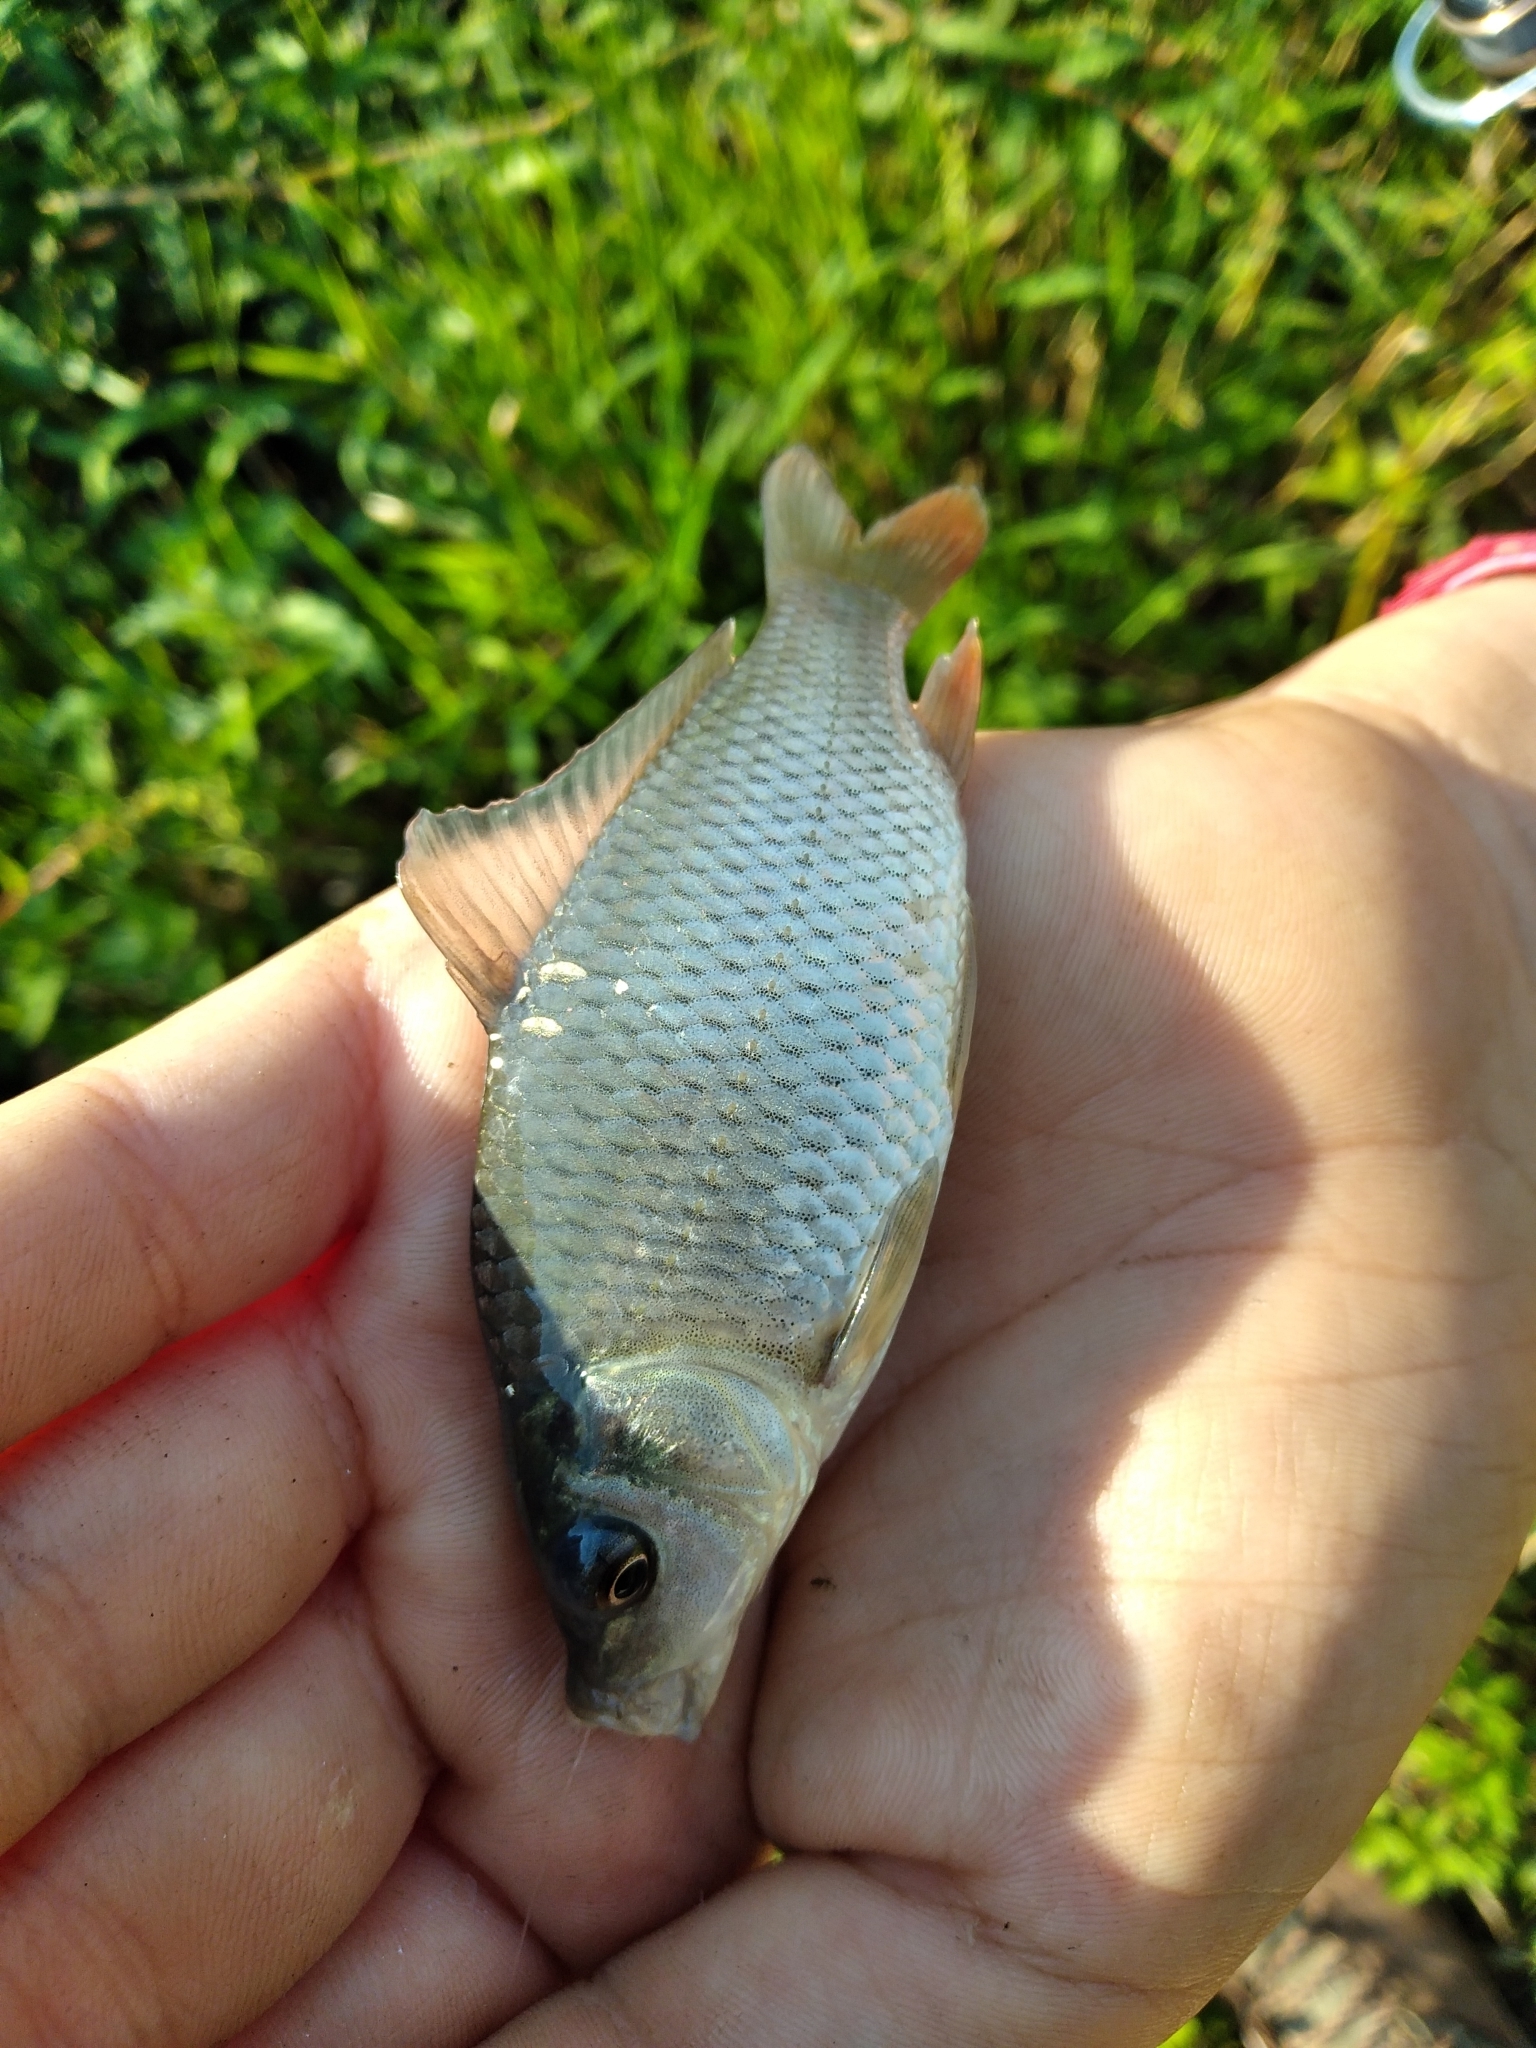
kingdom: Animalia
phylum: Chordata
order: Cypriniformes
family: Cyprinidae
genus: Cyprinus
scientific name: Cyprinus carpio
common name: Common carp
